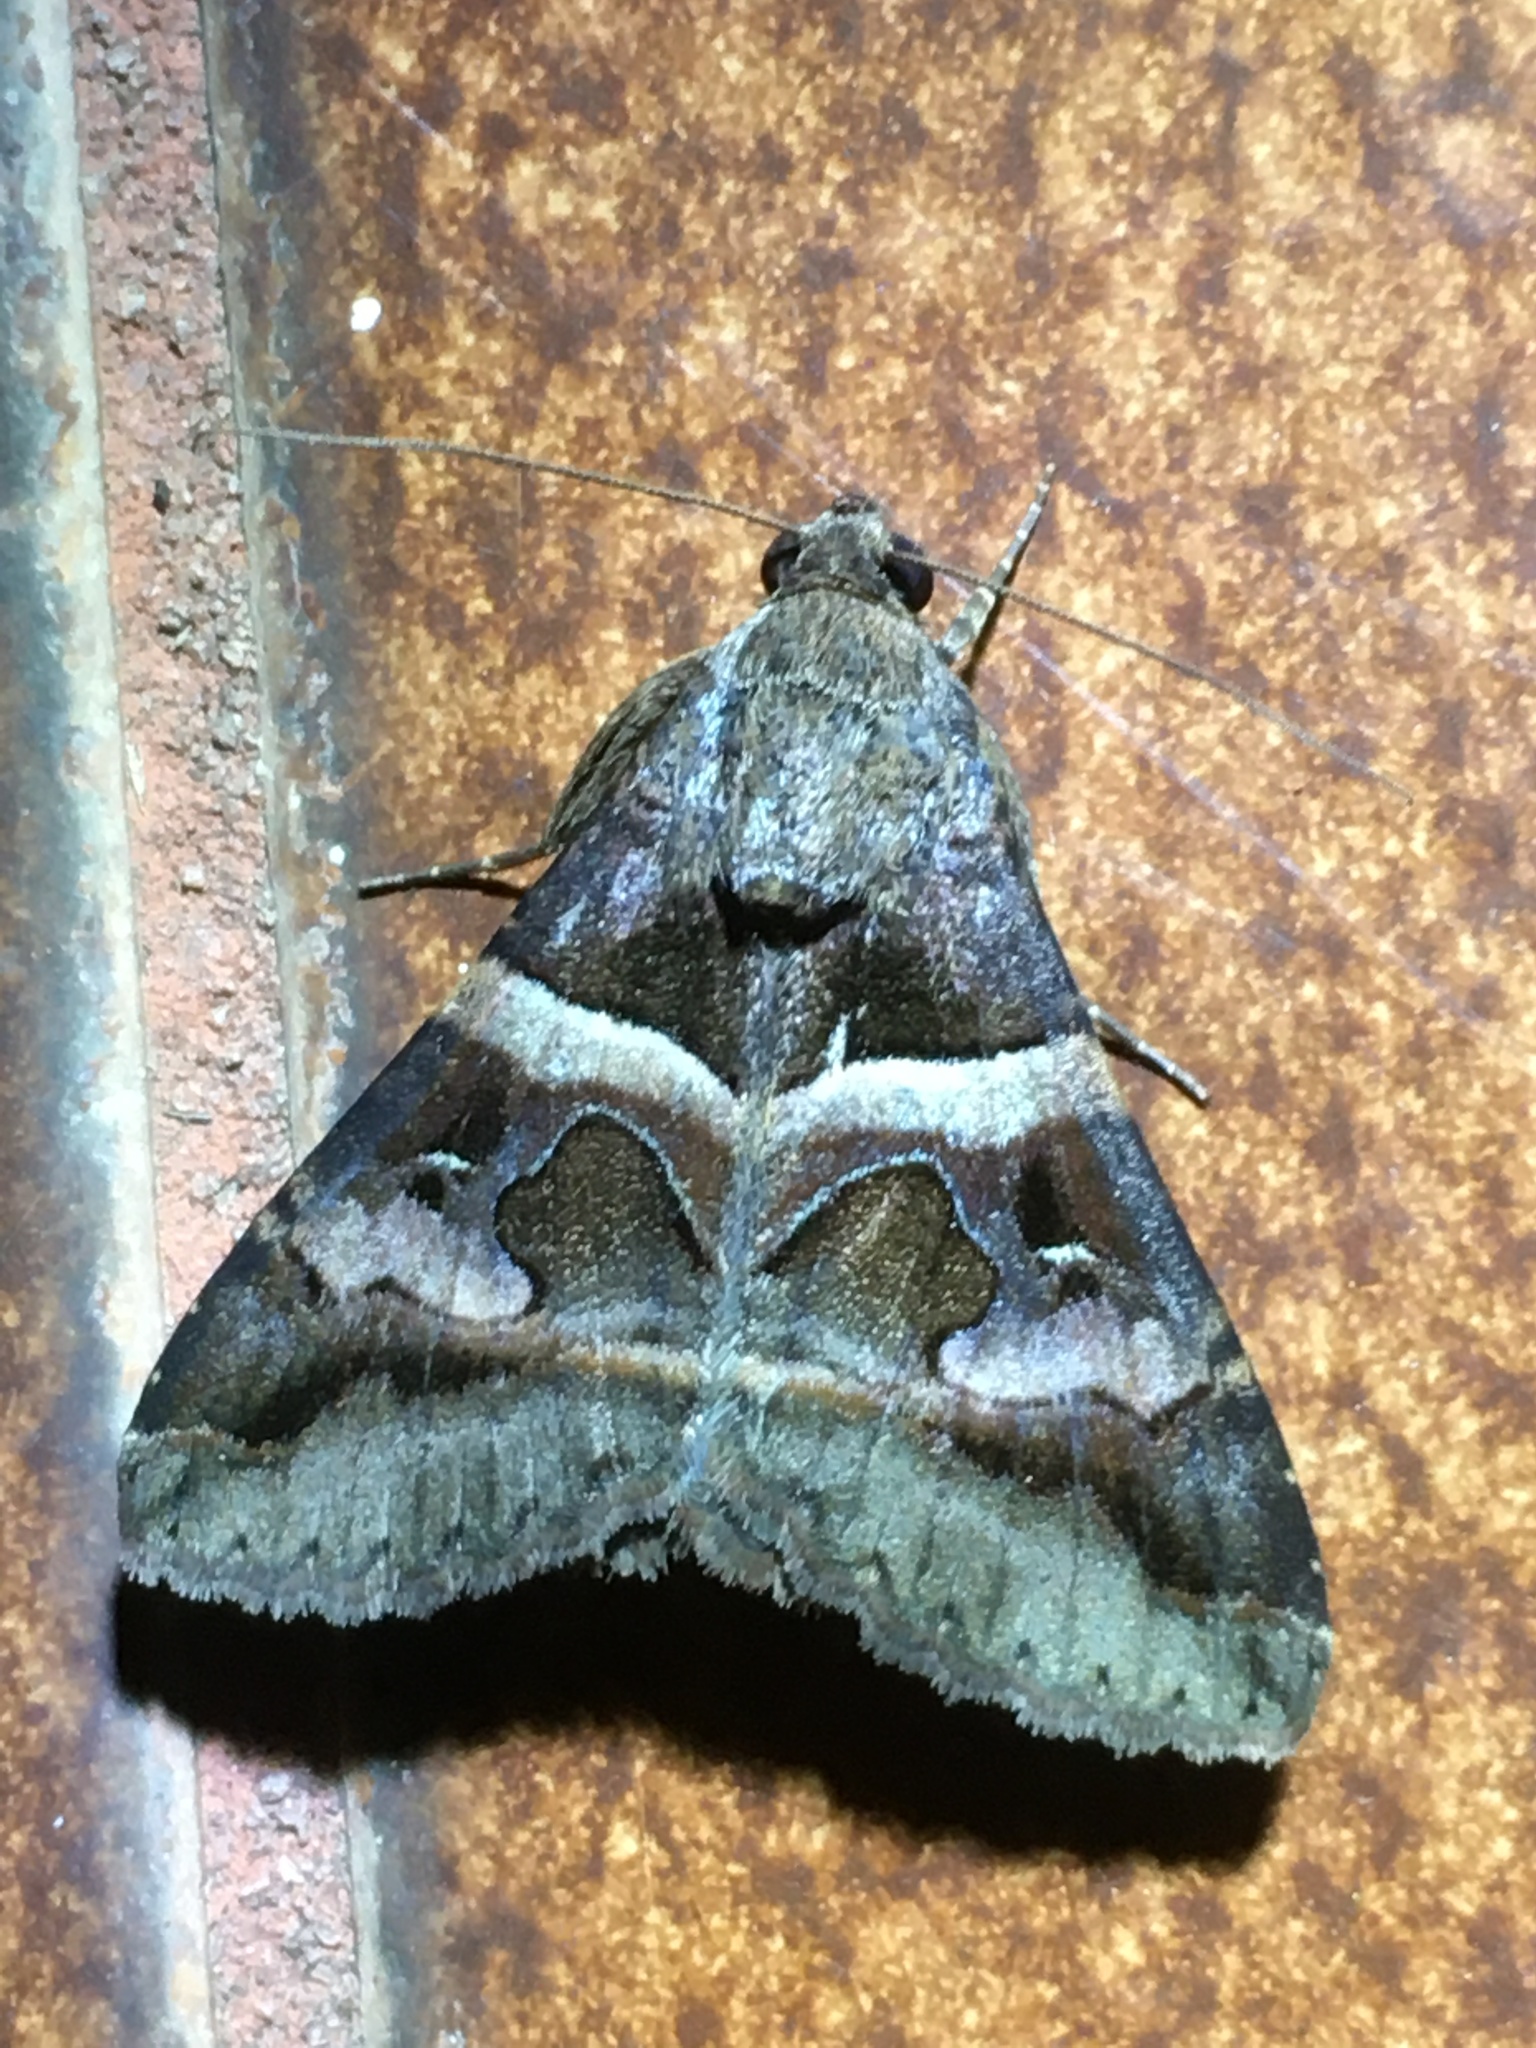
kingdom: Animalia
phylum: Arthropoda
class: Insecta
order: Lepidoptera
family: Erebidae
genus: Melipotis
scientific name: Melipotis perpendicularis
